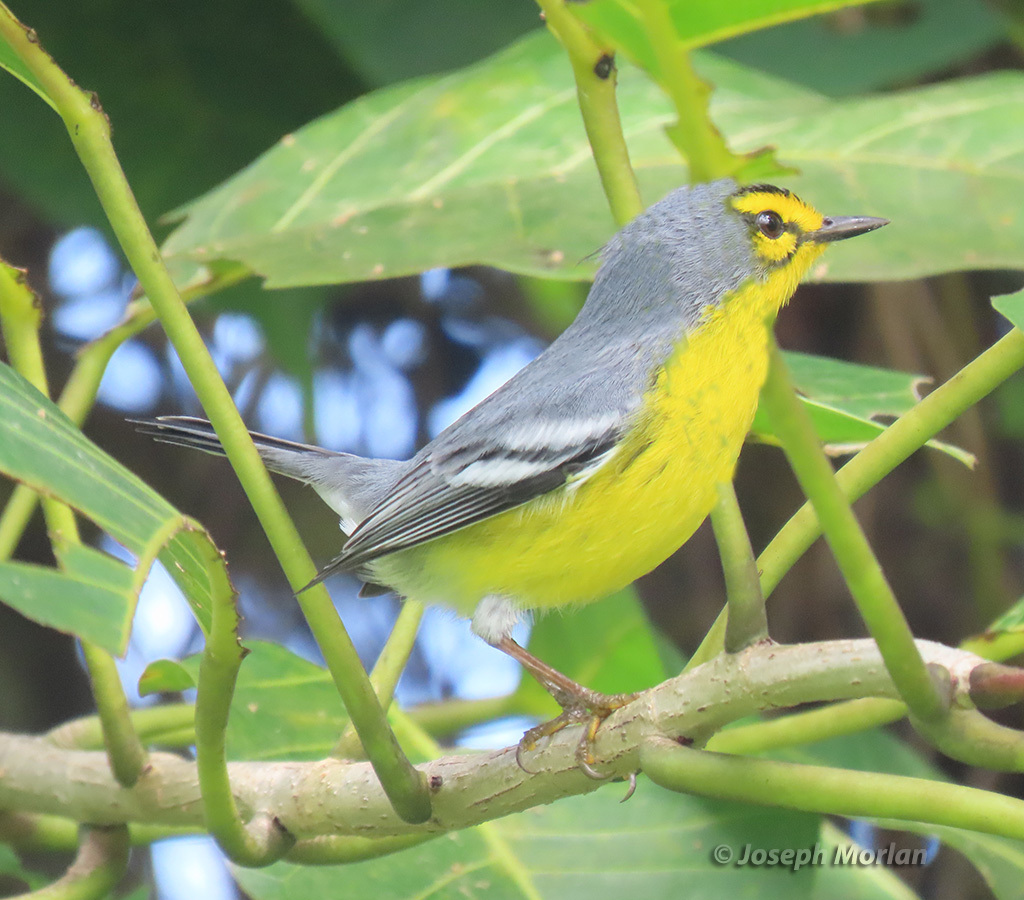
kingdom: Animalia
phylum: Chordata
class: Aves
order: Passeriformes
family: Parulidae
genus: Setophaga
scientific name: Setophaga delicata
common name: St. lucia warbler
